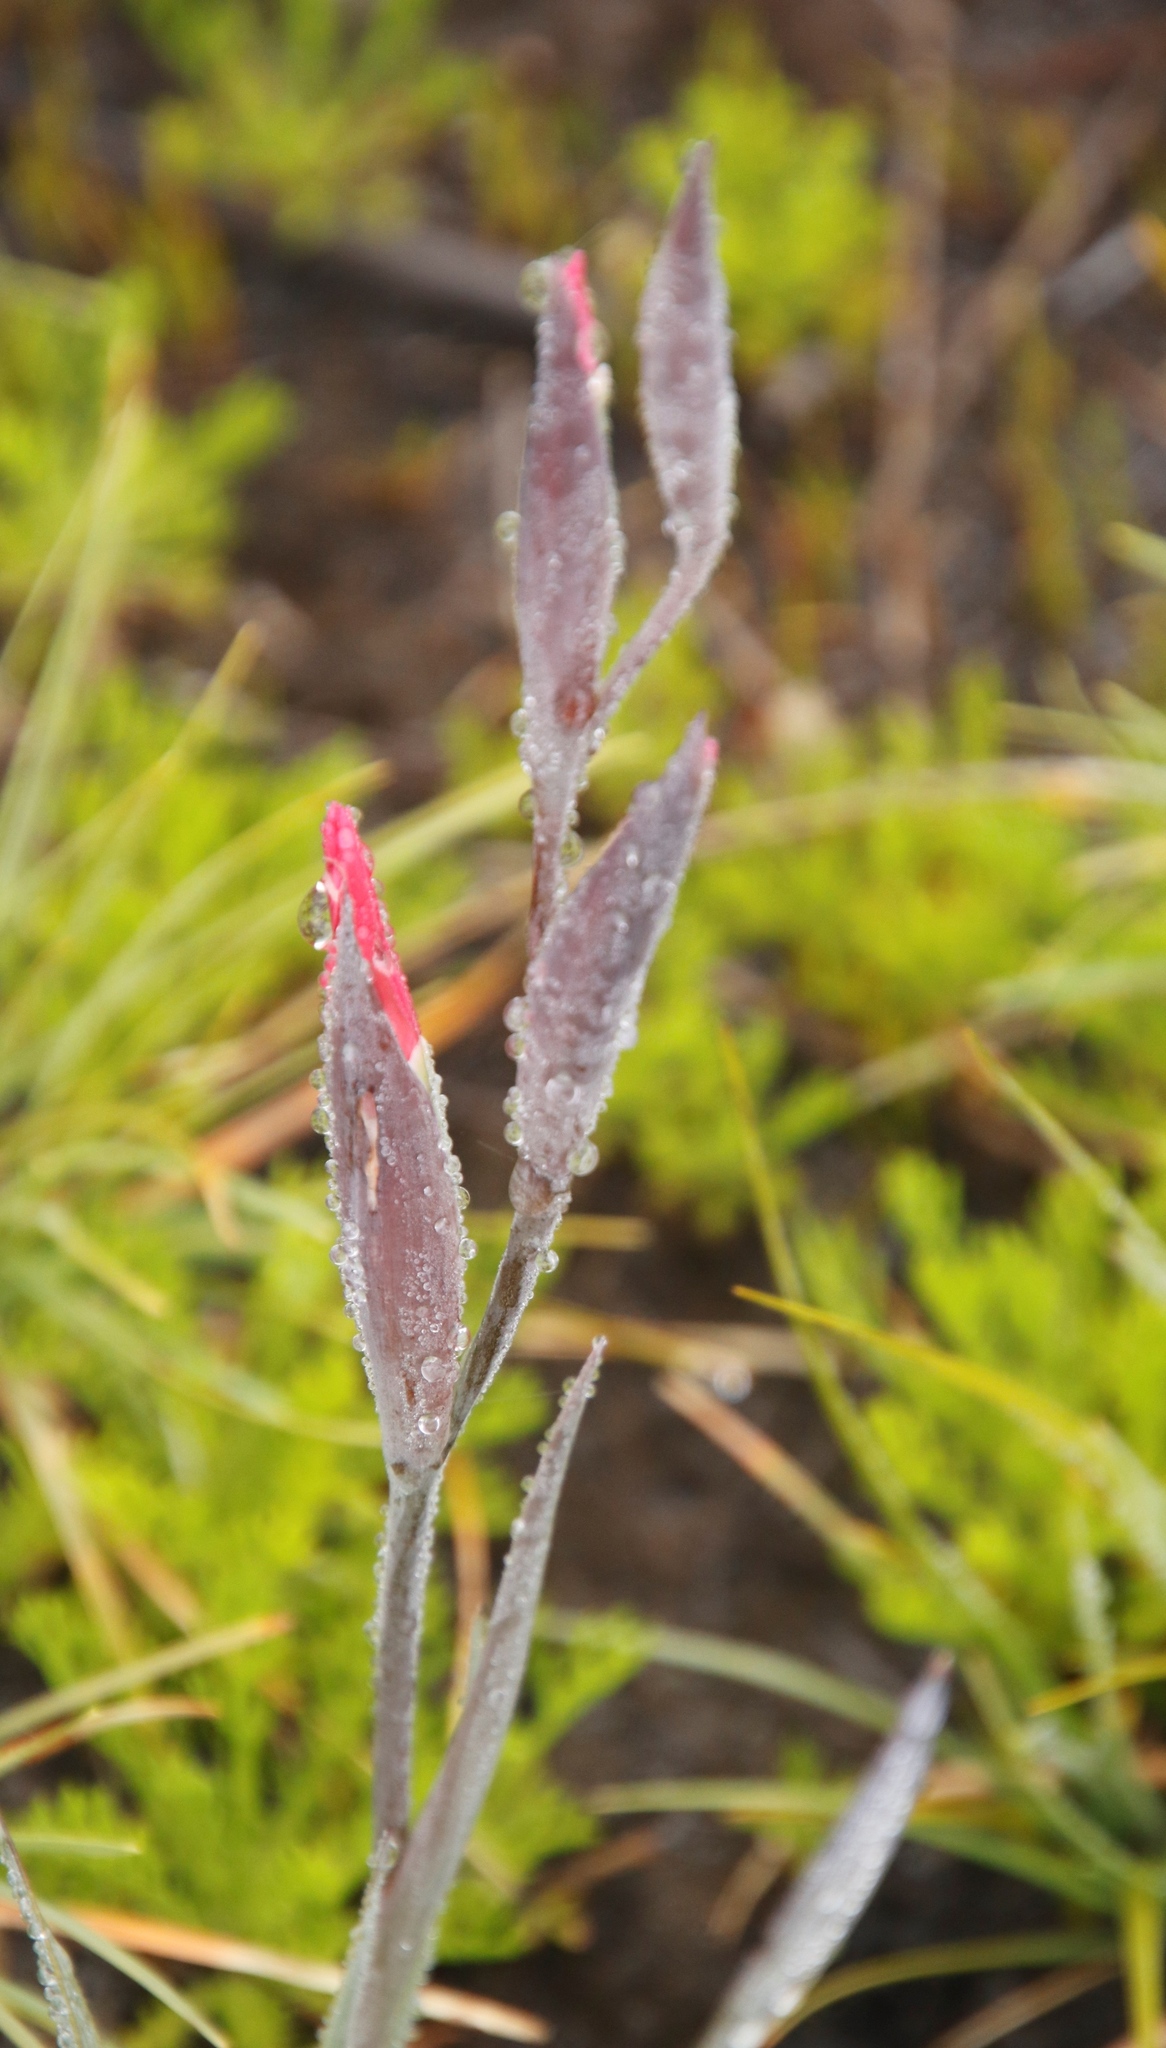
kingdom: Plantae
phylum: Tracheophyta
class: Liliopsida
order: Asparagales
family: Iridaceae
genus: Gladiolus
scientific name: Gladiolus carneus
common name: Painted-lady
